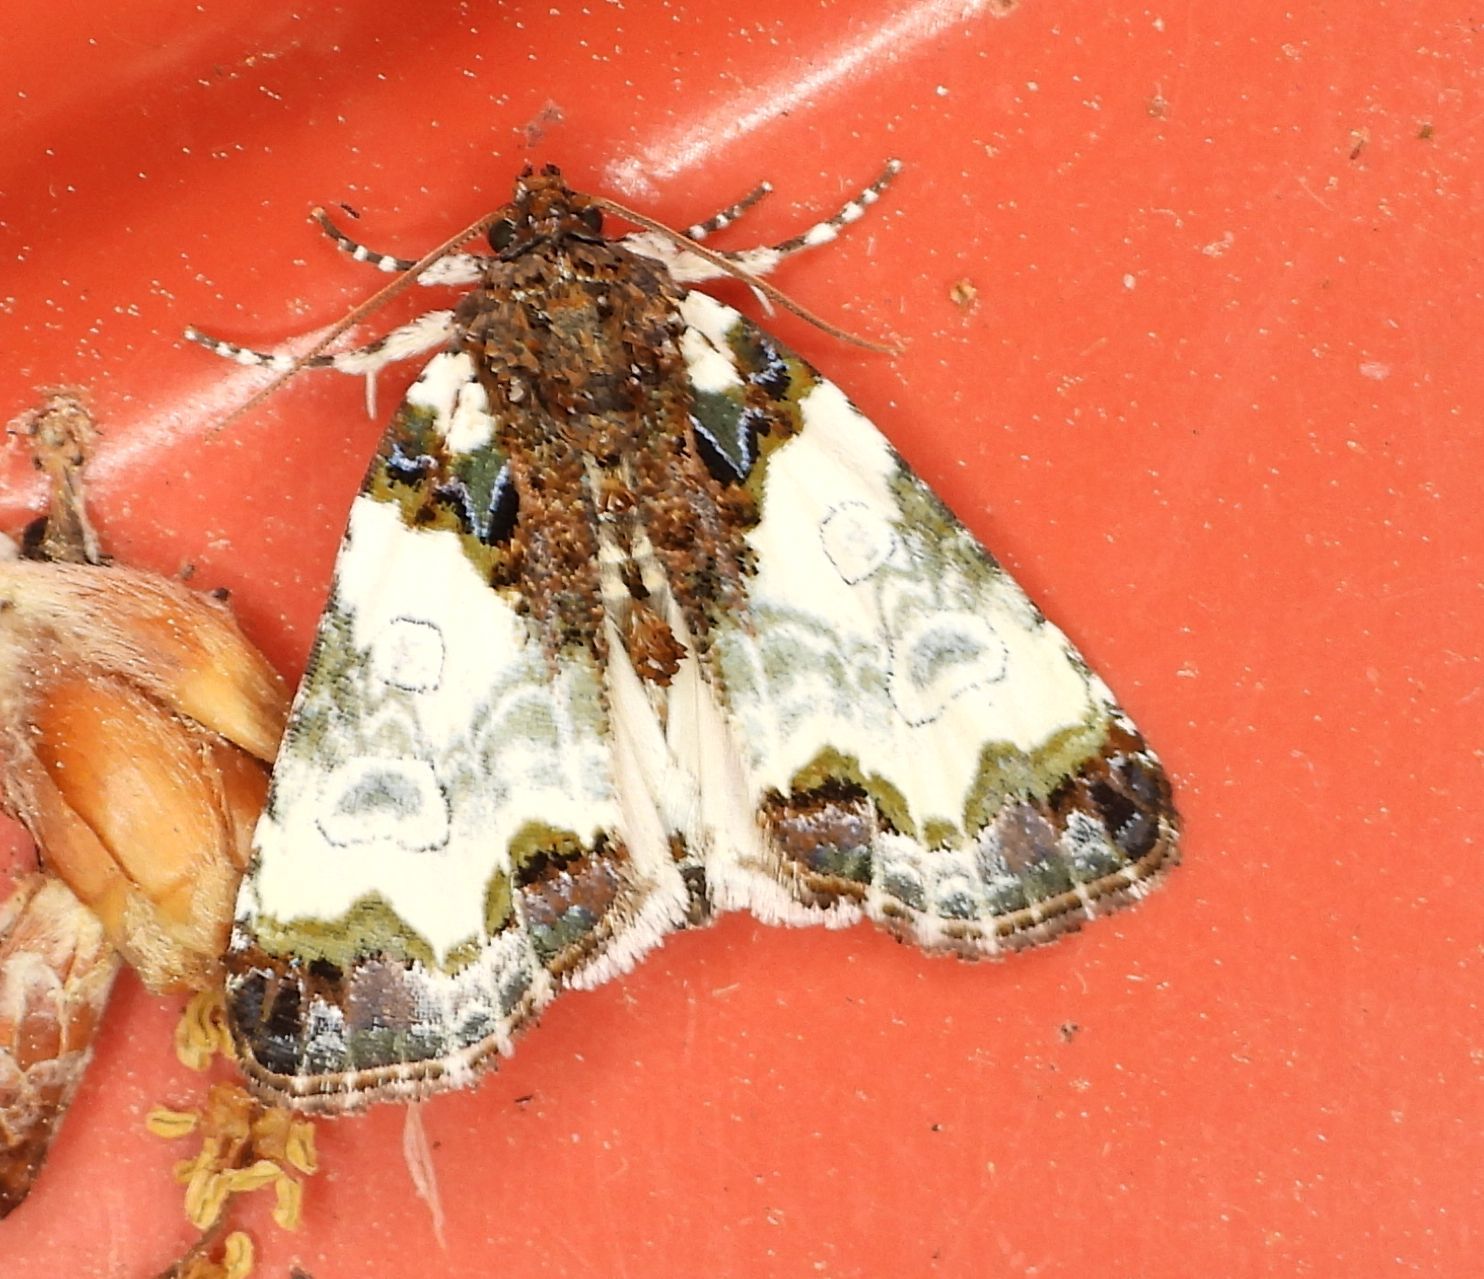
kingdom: Animalia
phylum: Arthropoda
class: Insecta
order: Lepidoptera
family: Noctuidae
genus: Cerma
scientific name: Cerma cerintha
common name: Tufted bird-dropping moth
